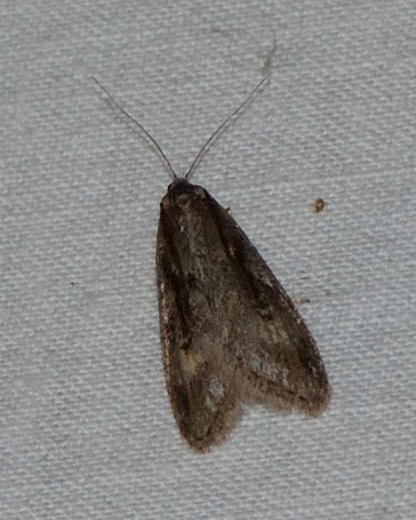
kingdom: Animalia
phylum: Arthropoda
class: Insecta
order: Lepidoptera
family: Depressariidae
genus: Semioscopis
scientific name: Semioscopis anella
